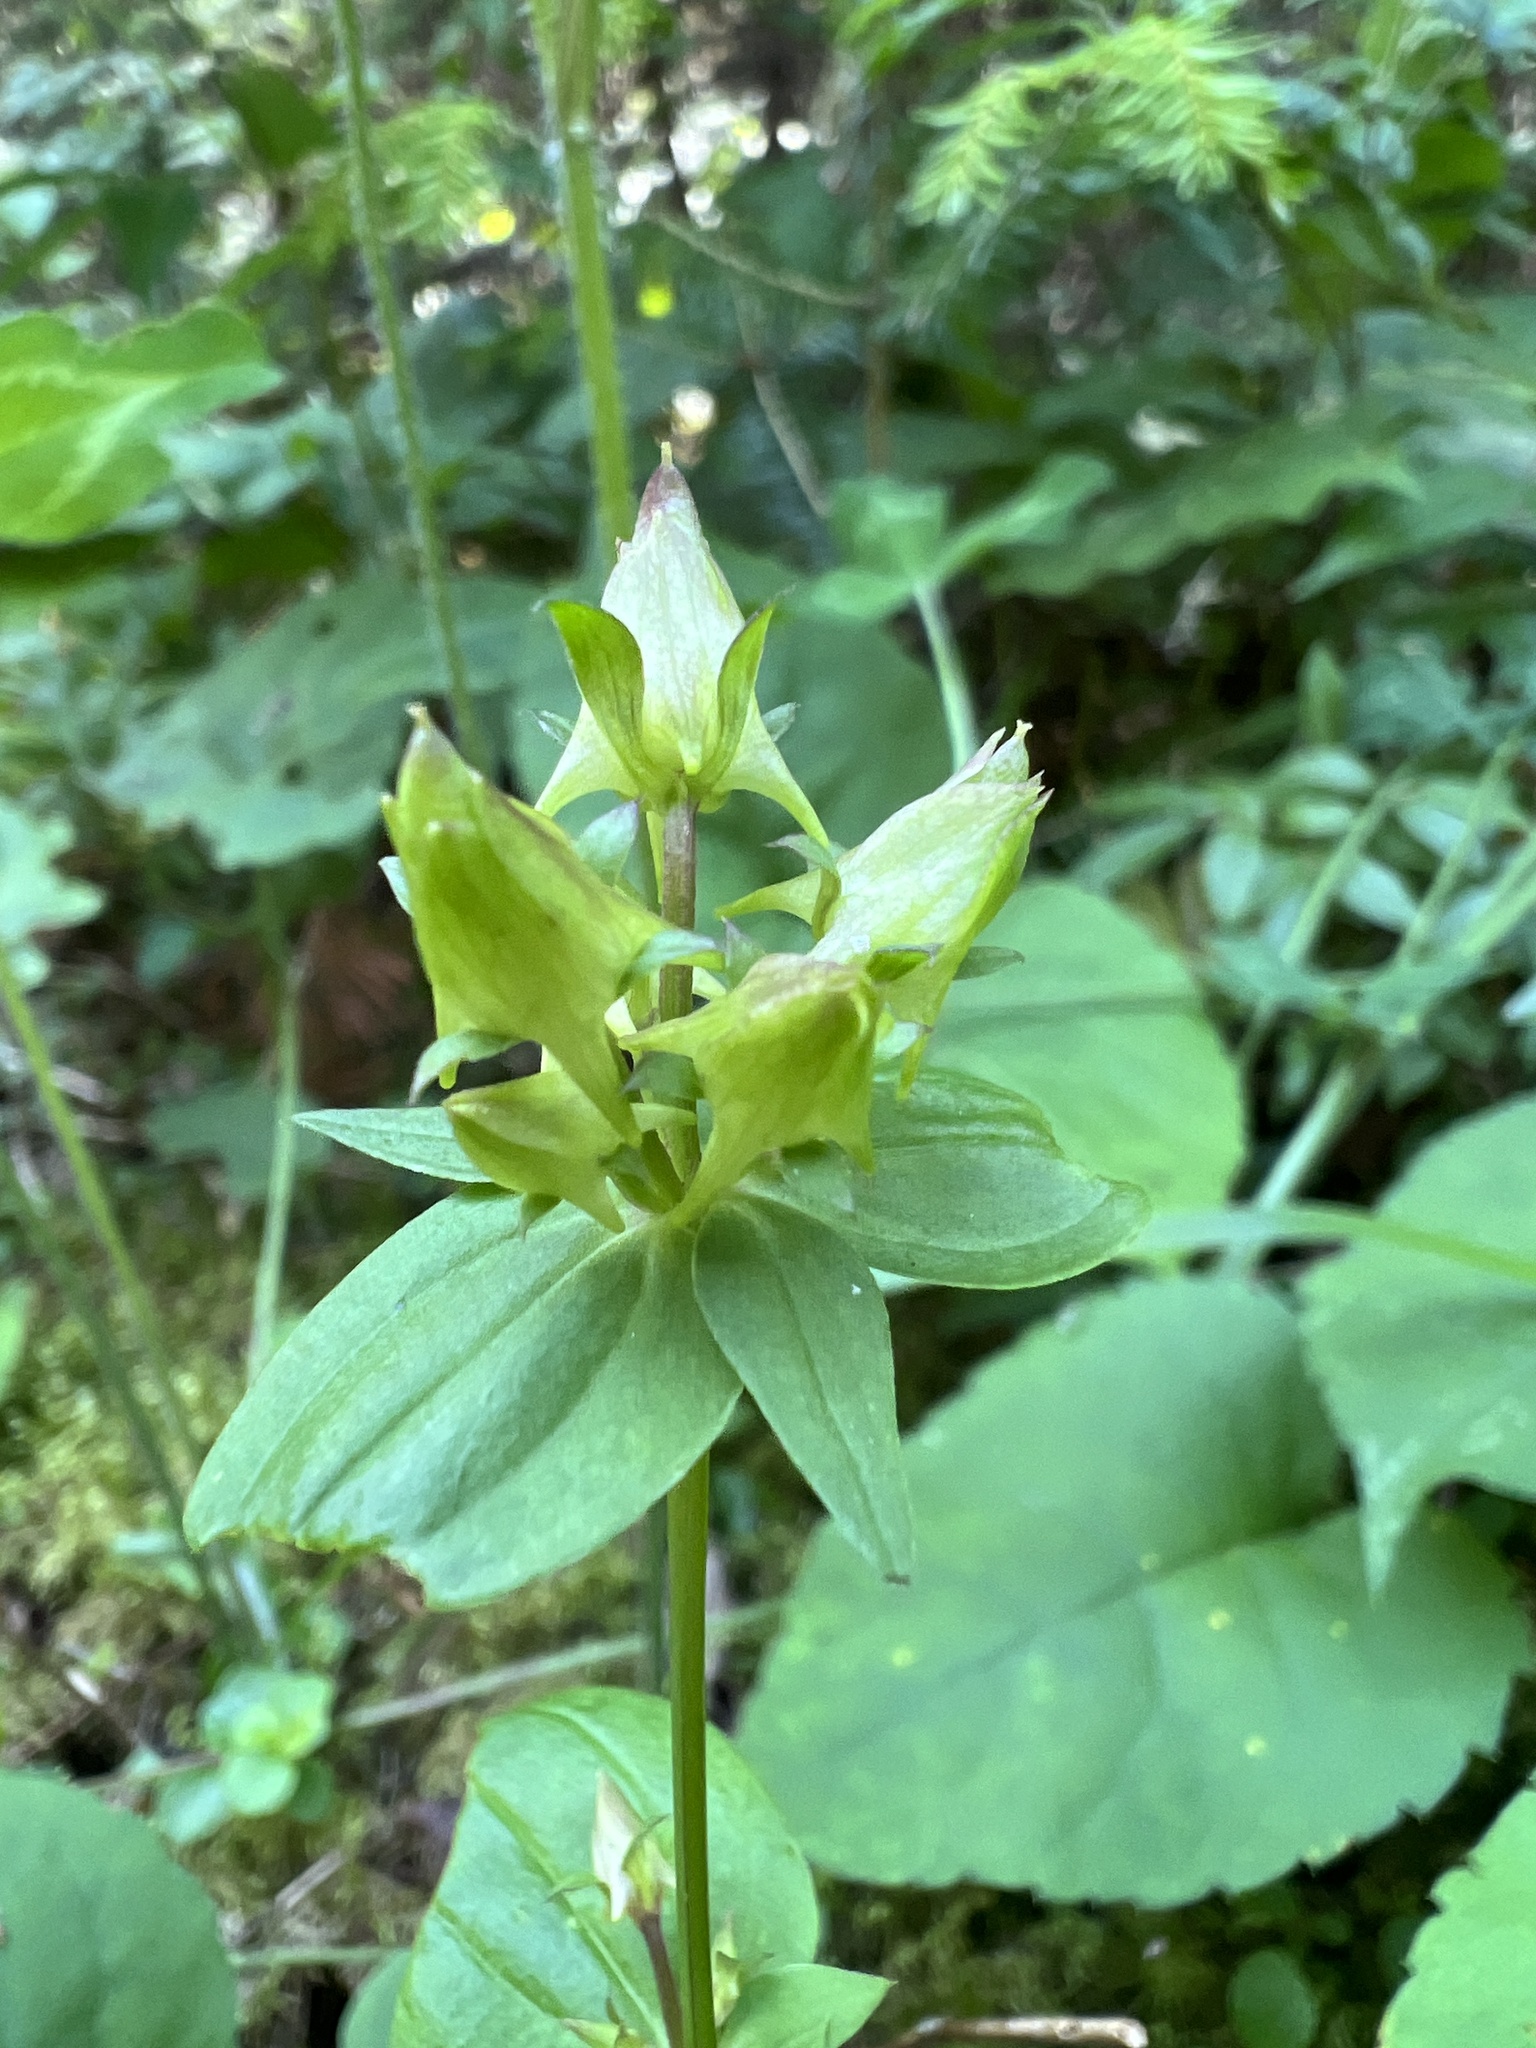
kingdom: Plantae
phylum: Tracheophyta
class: Magnoliopsida
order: Gentianales
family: Gentianaceae
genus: Halenia
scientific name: Halenia deflexa
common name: American spurred gentian
